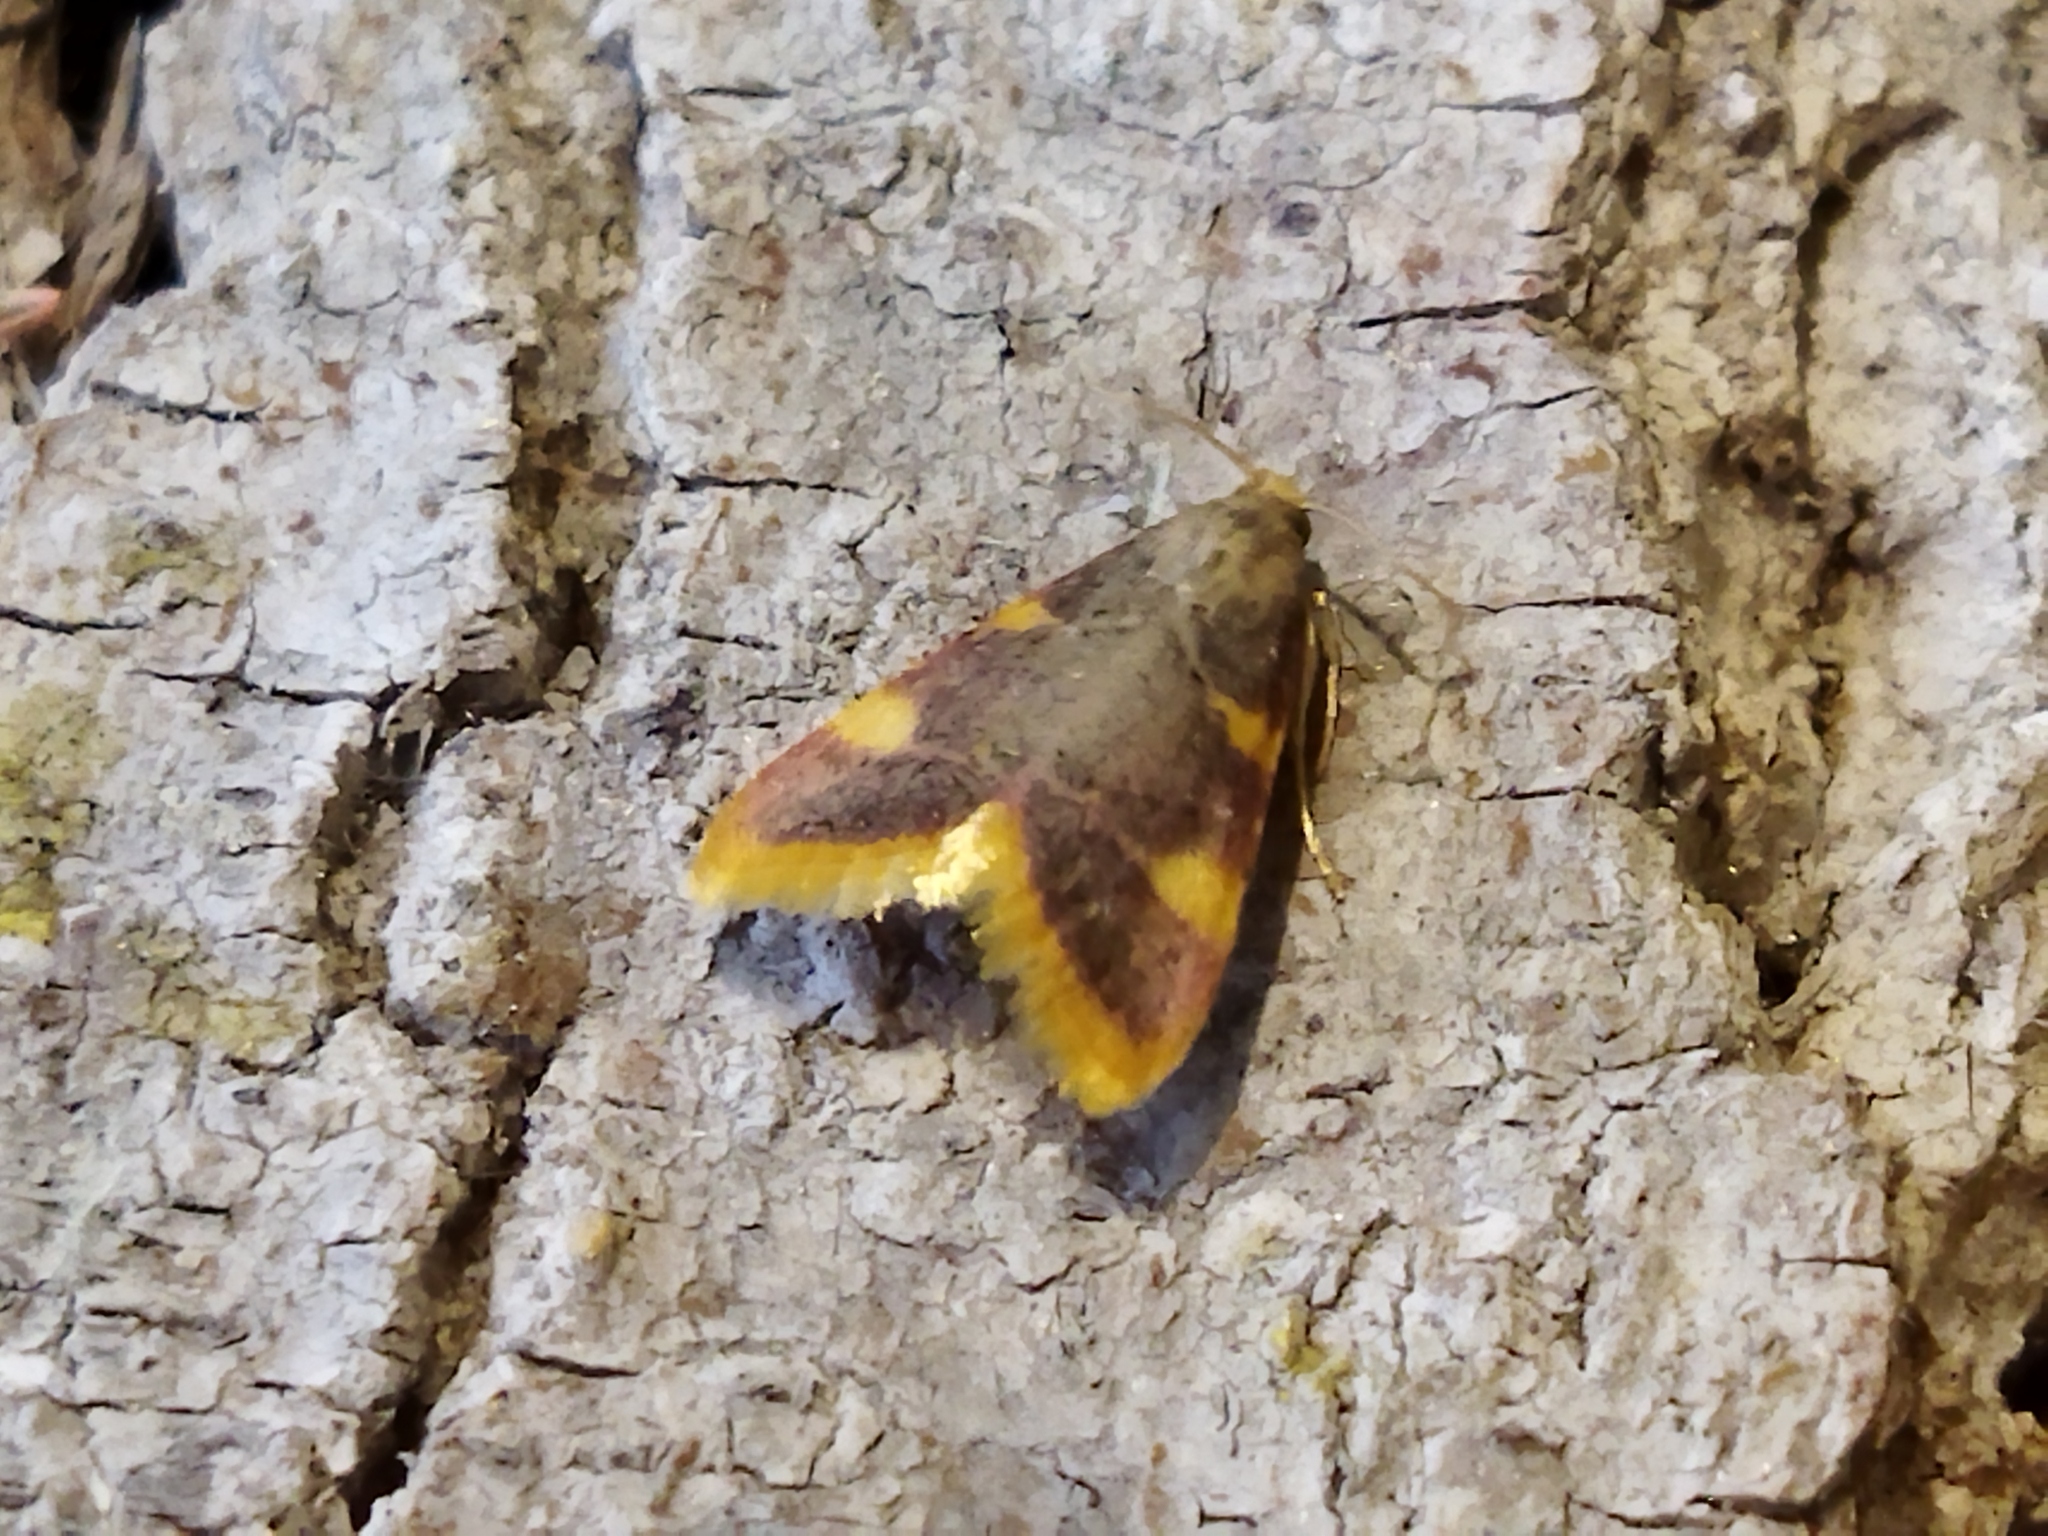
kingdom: Animalia
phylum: Arthropoda
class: Insecta
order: Lepidoptera
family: Pyralidae
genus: Hypsopygia
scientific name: Hypsopygia costalis
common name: Gold triangle
